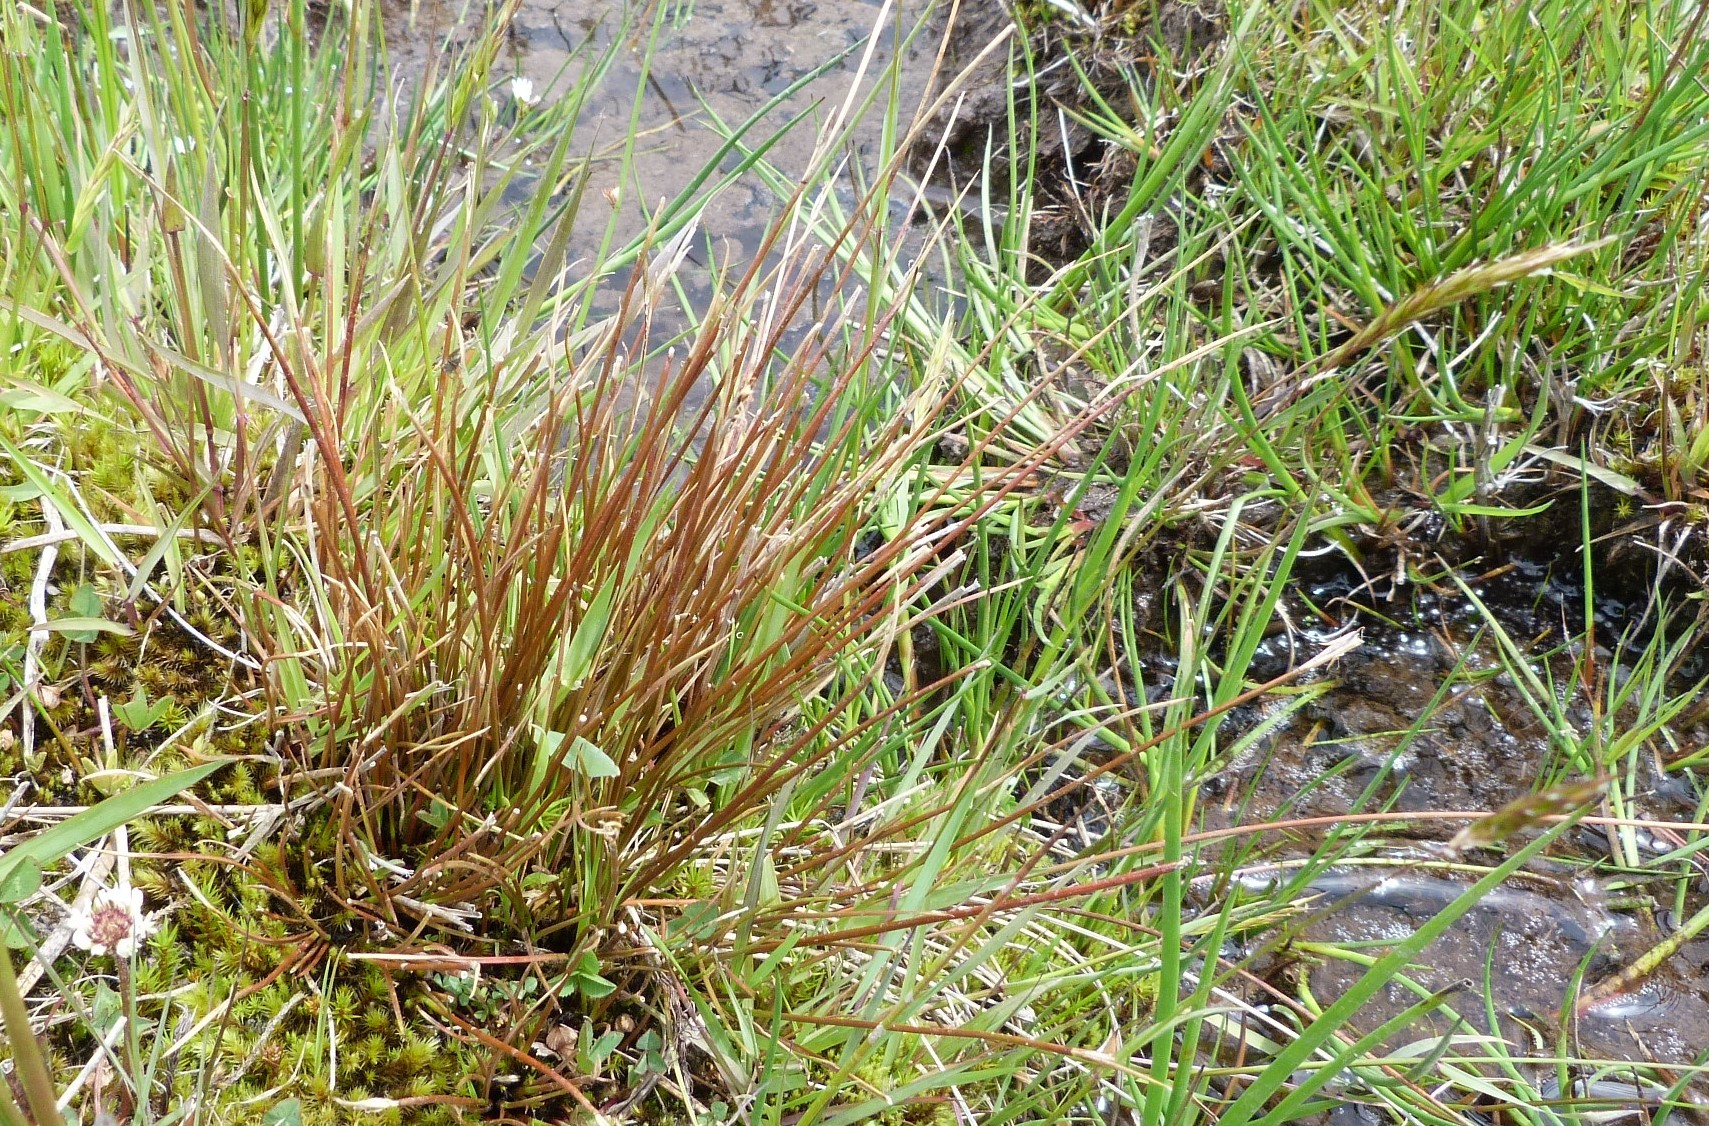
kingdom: Plantae
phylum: Tracheophyta
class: Liliopsida
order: Poales
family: Cyperaceae
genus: Schoenus
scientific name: Schoenus pauciflorus
